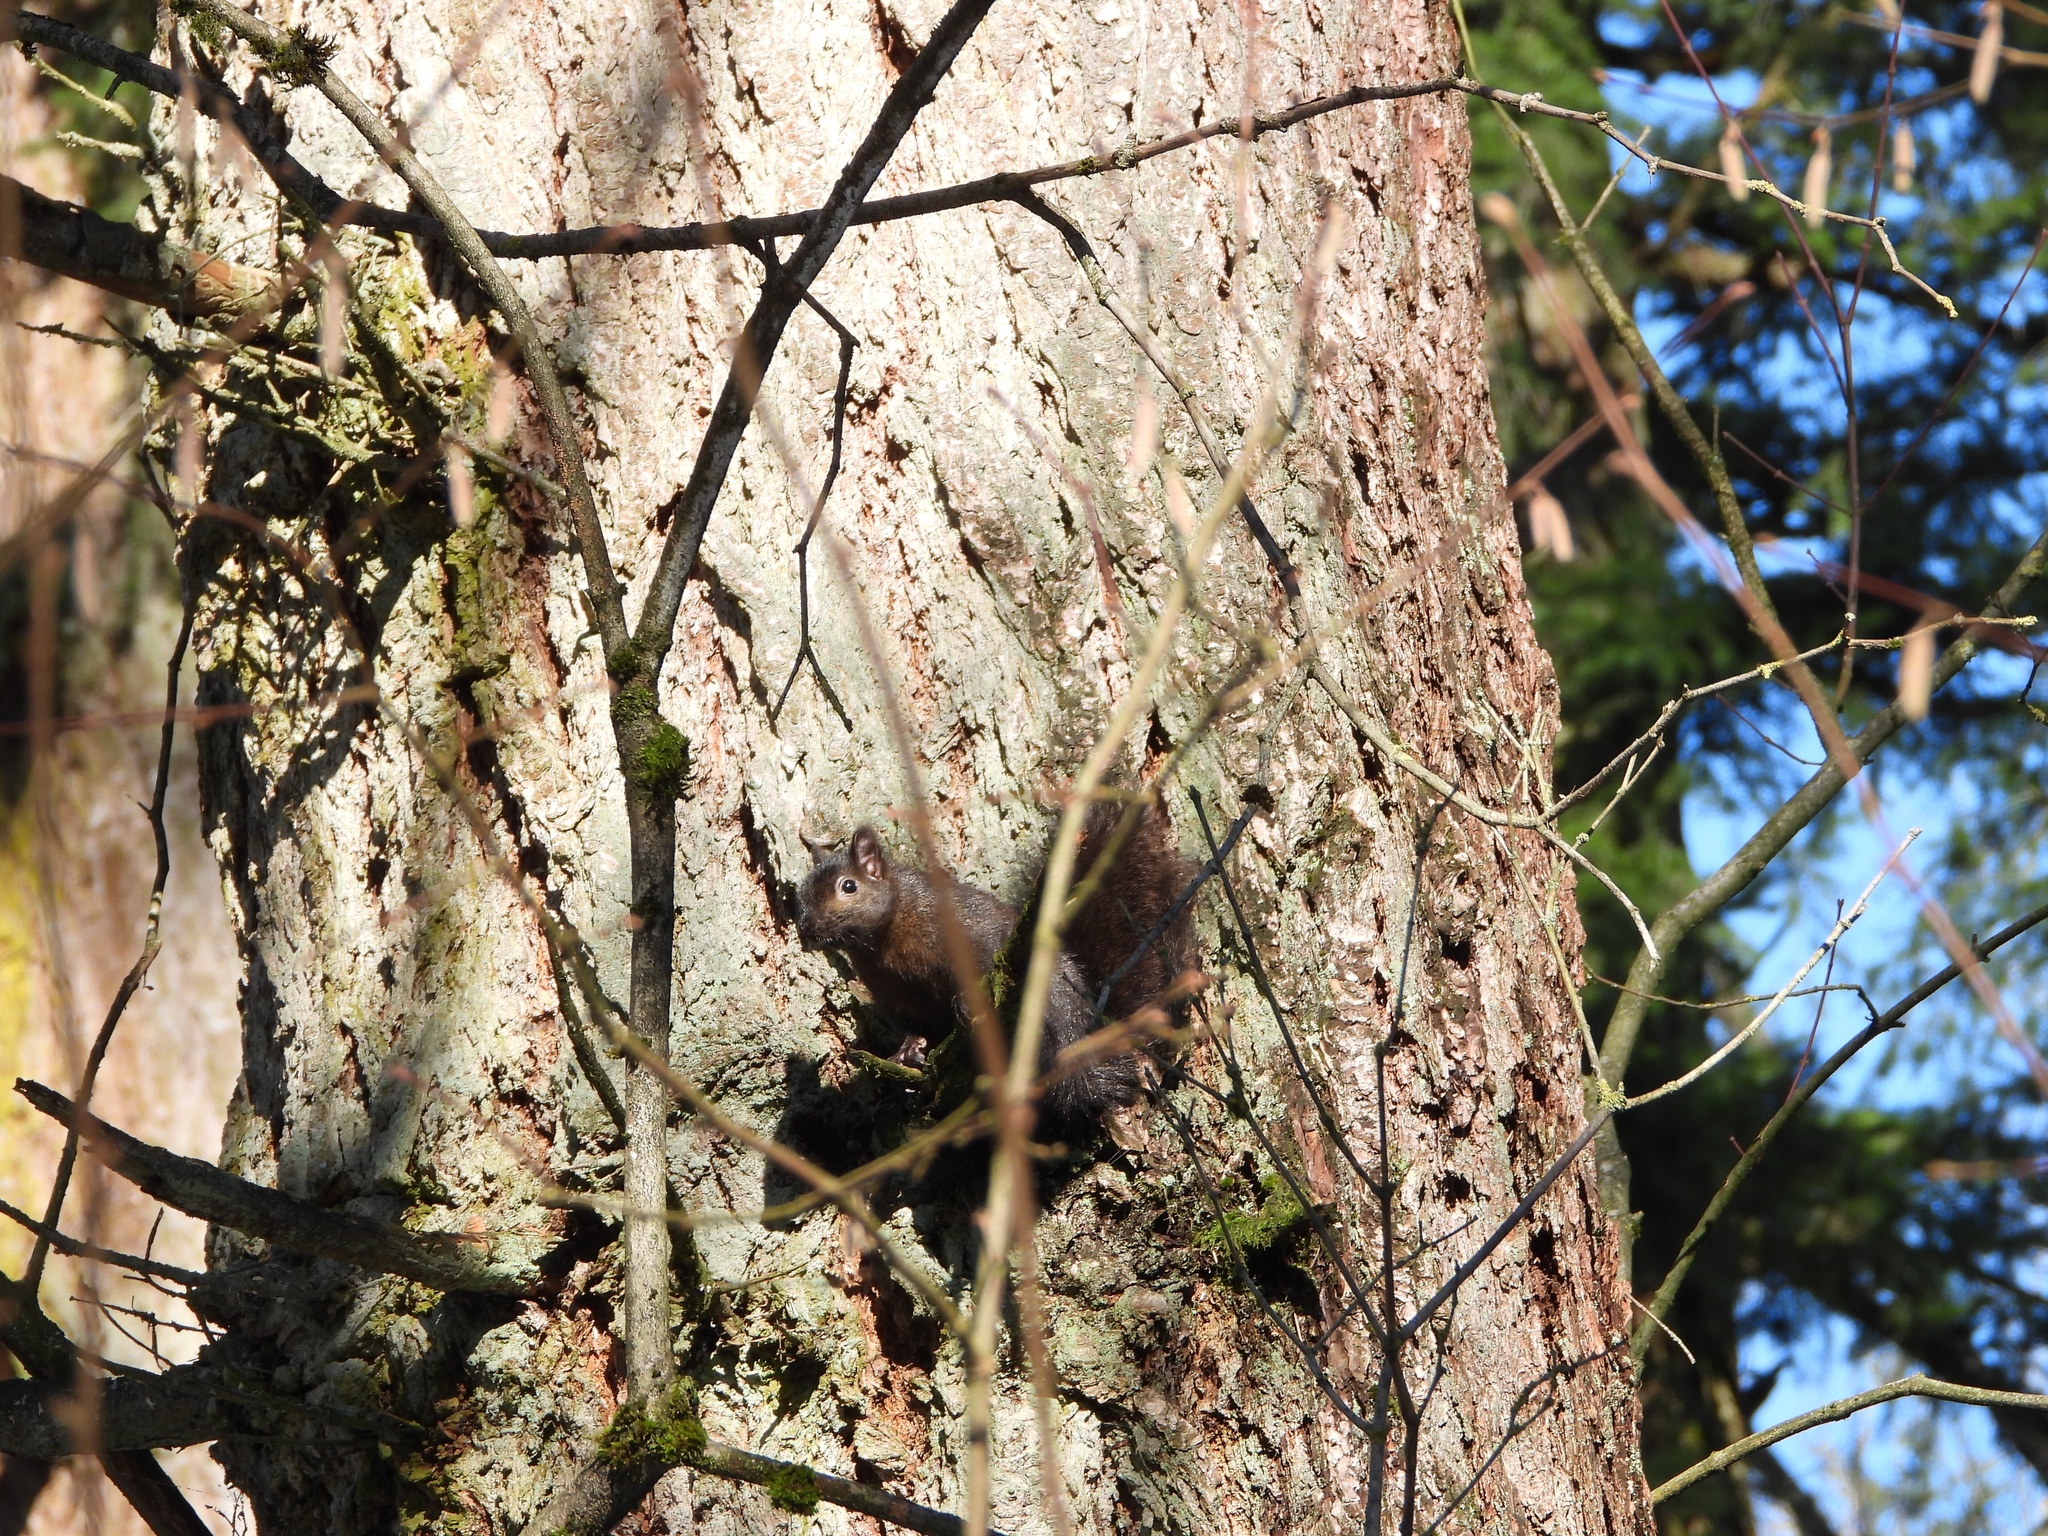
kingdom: Animalia
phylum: Chordata
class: Mammalia
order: Rodentia
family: Sciuridae
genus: Sciurus
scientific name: Sciurus carolinensis
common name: Eastern gray squirrel
